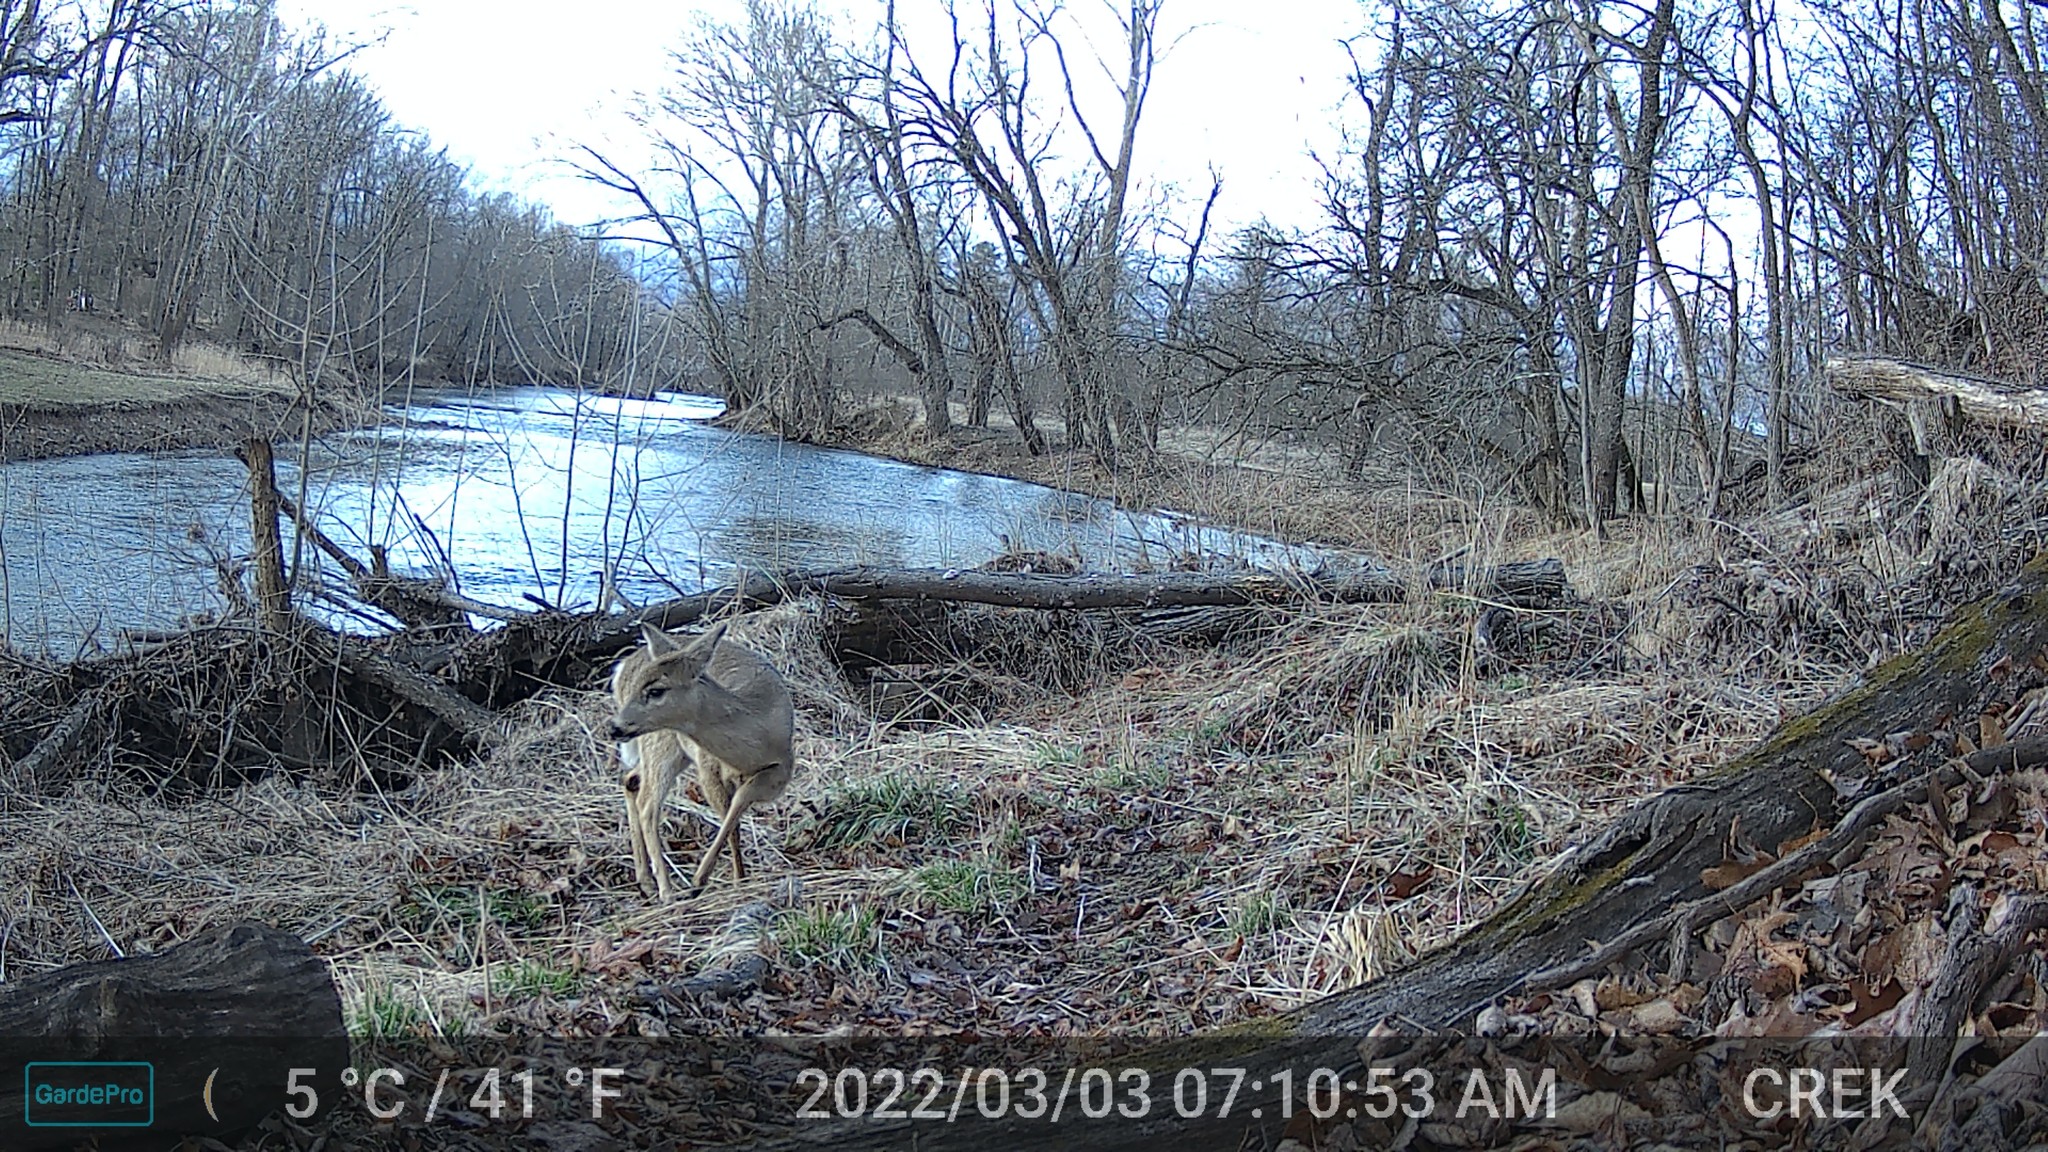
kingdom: Animalia
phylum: Chordata
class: Mammalia
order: Artiodactyla
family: Cervidae
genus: Odocoileus
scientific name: Odocoileus virginianus
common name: White-tailed deer
